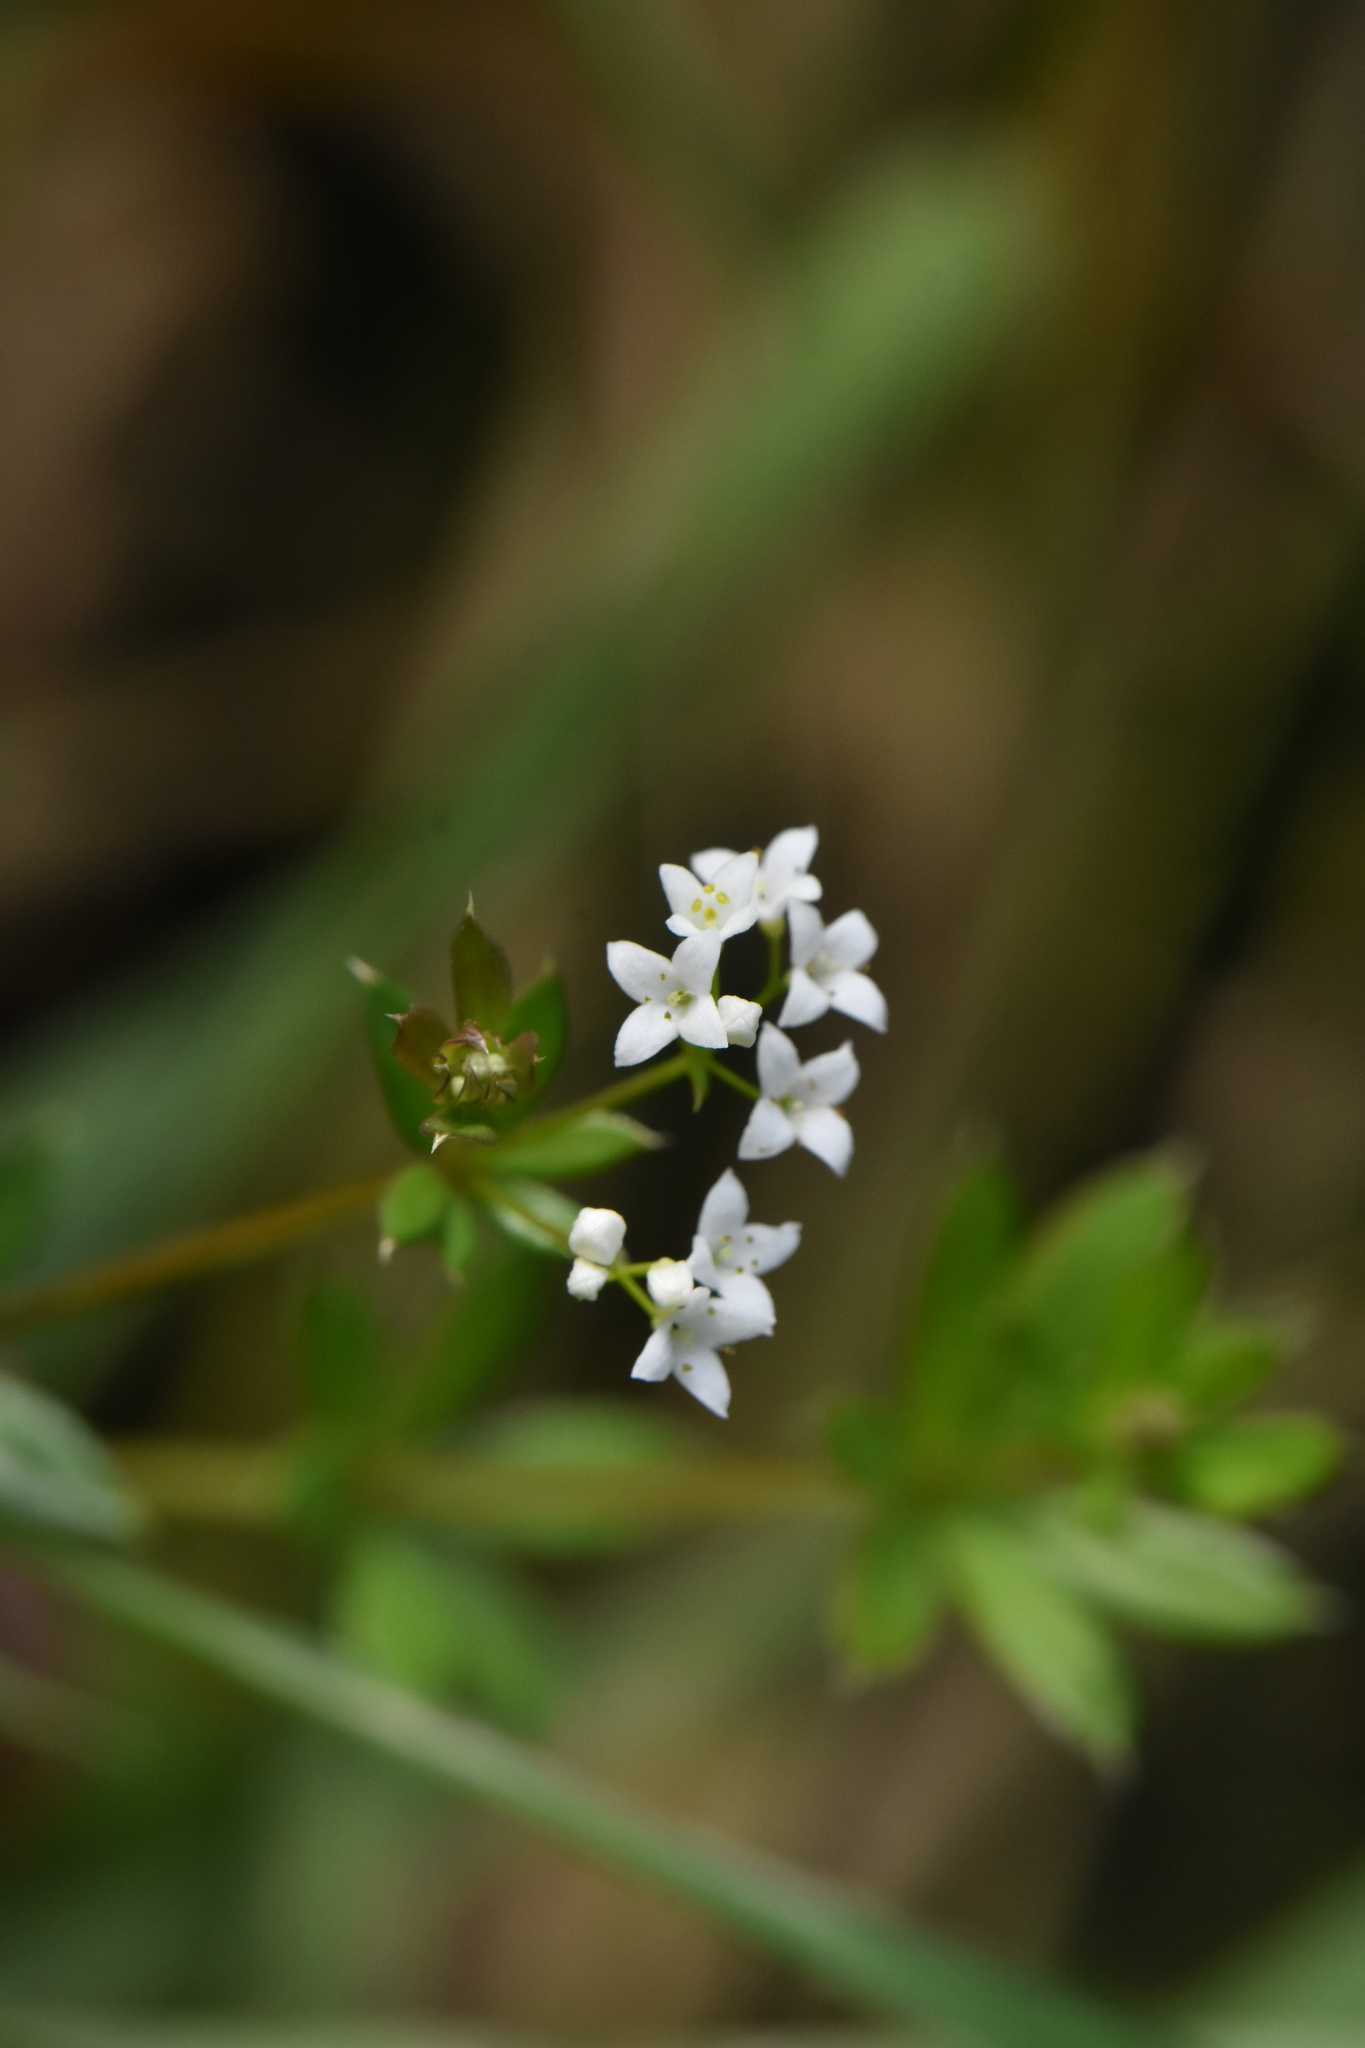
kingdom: Plantae
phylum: Tracheophyta
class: Magnoliopsida
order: Gentianales
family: Rubiaceae
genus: Galium
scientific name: Galium uliginosum
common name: Fen bedstraw
